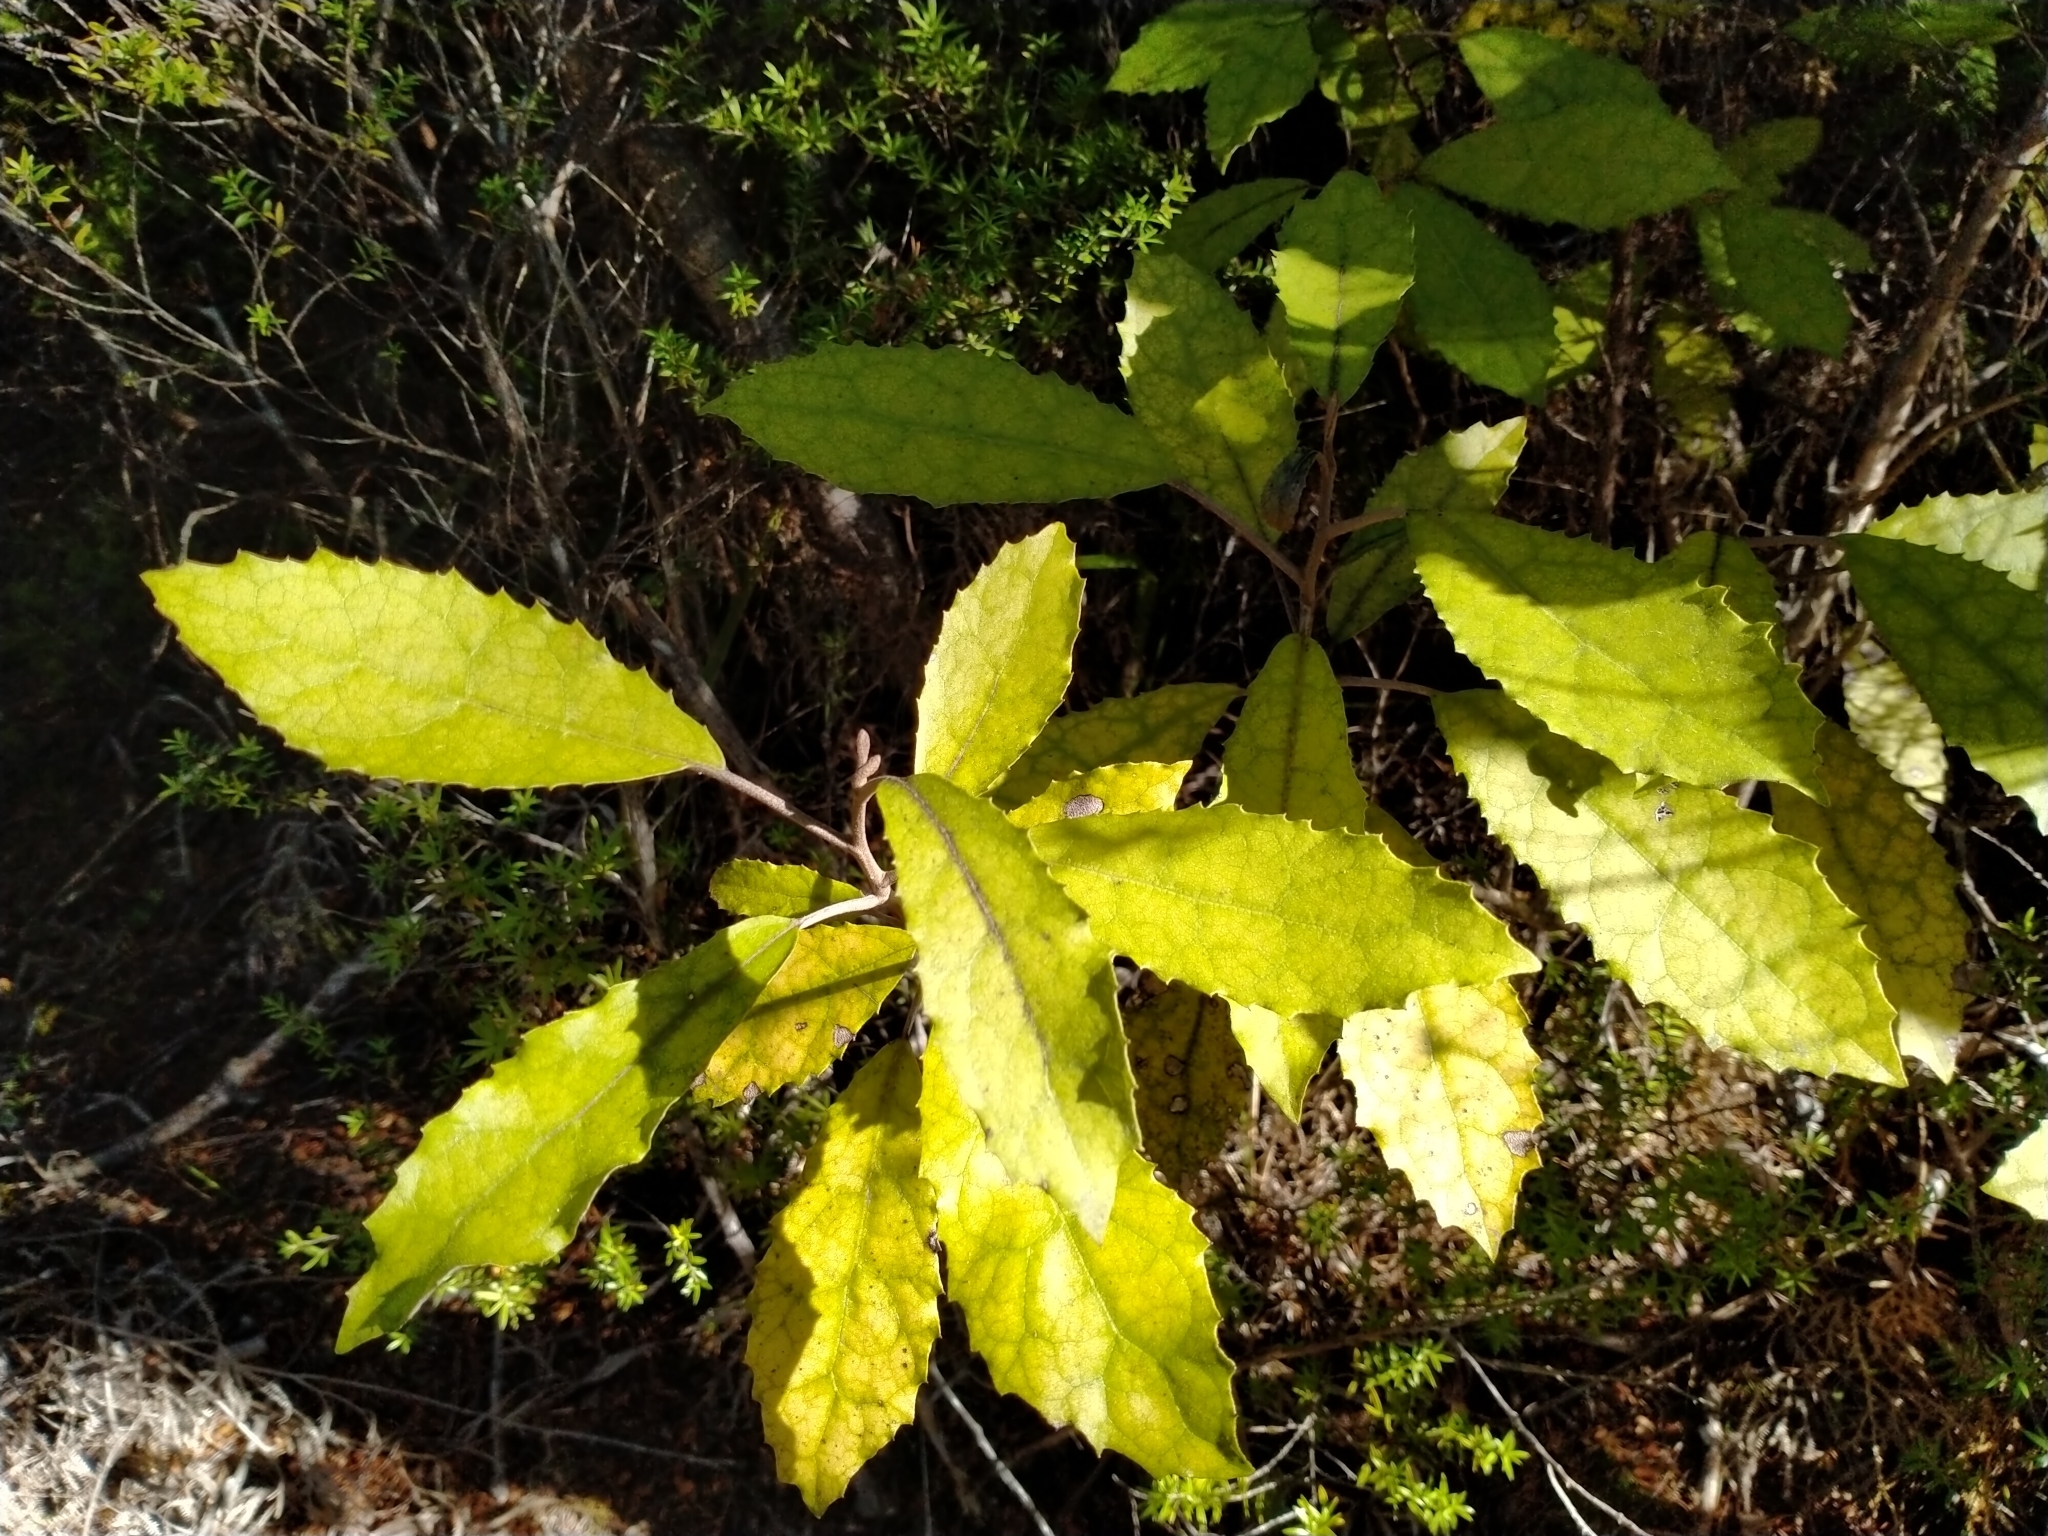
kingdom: Plantae
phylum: Tracheophyta
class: Magnoliopsida
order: Asterales
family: Asteraceae
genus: Olearia
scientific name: Olearia rani
